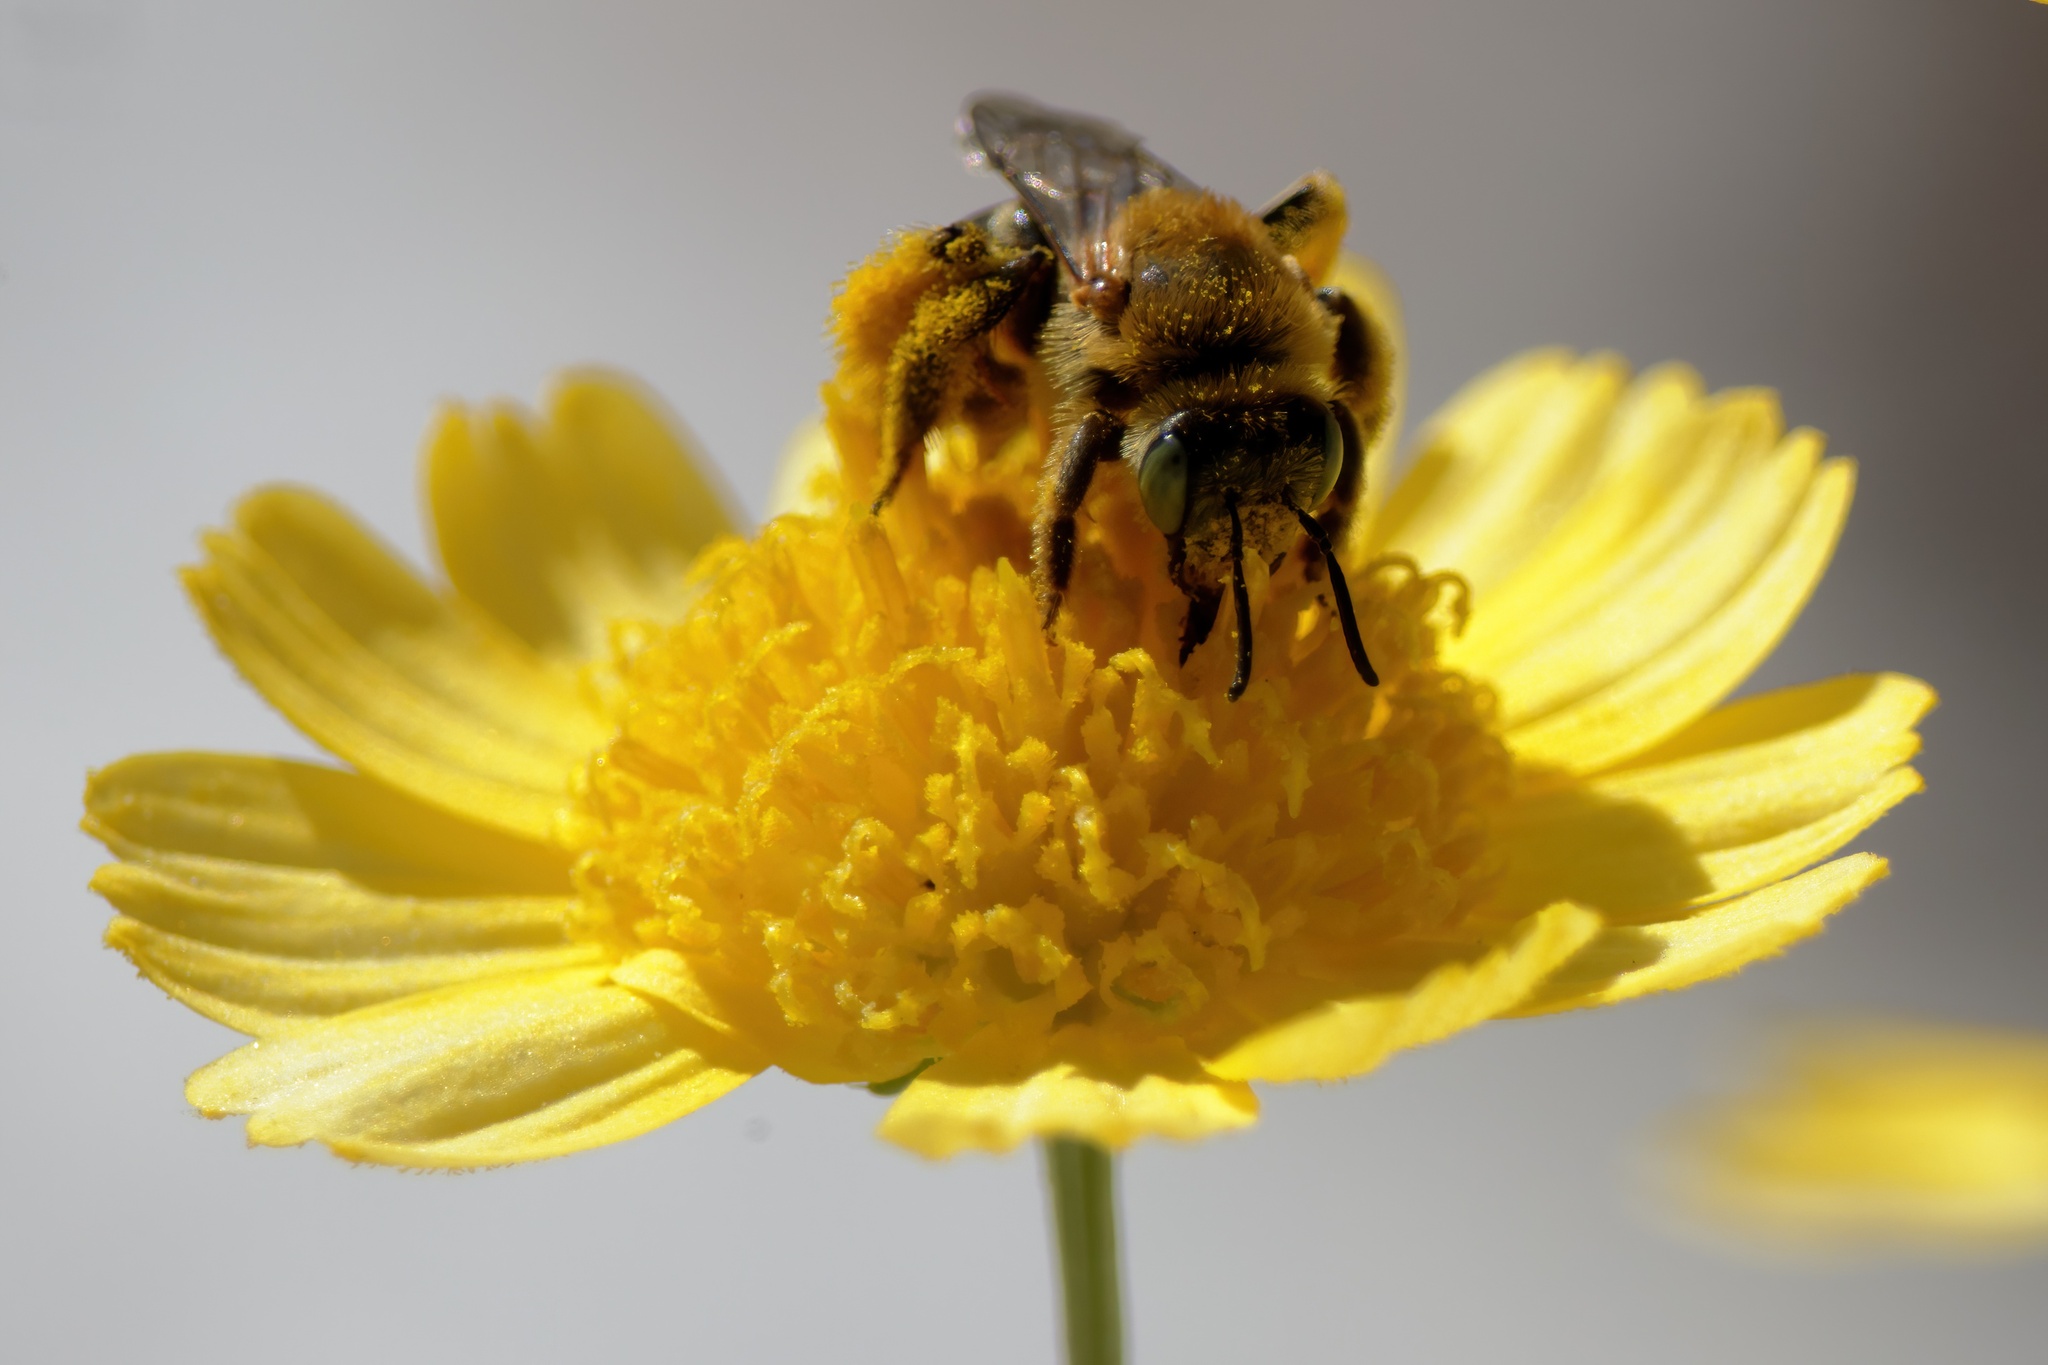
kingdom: Animalia
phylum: Arthropoda
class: Insecta
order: Hymenoptera
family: Melittidae
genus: Hesperapis
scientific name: Hesperapis oraria
